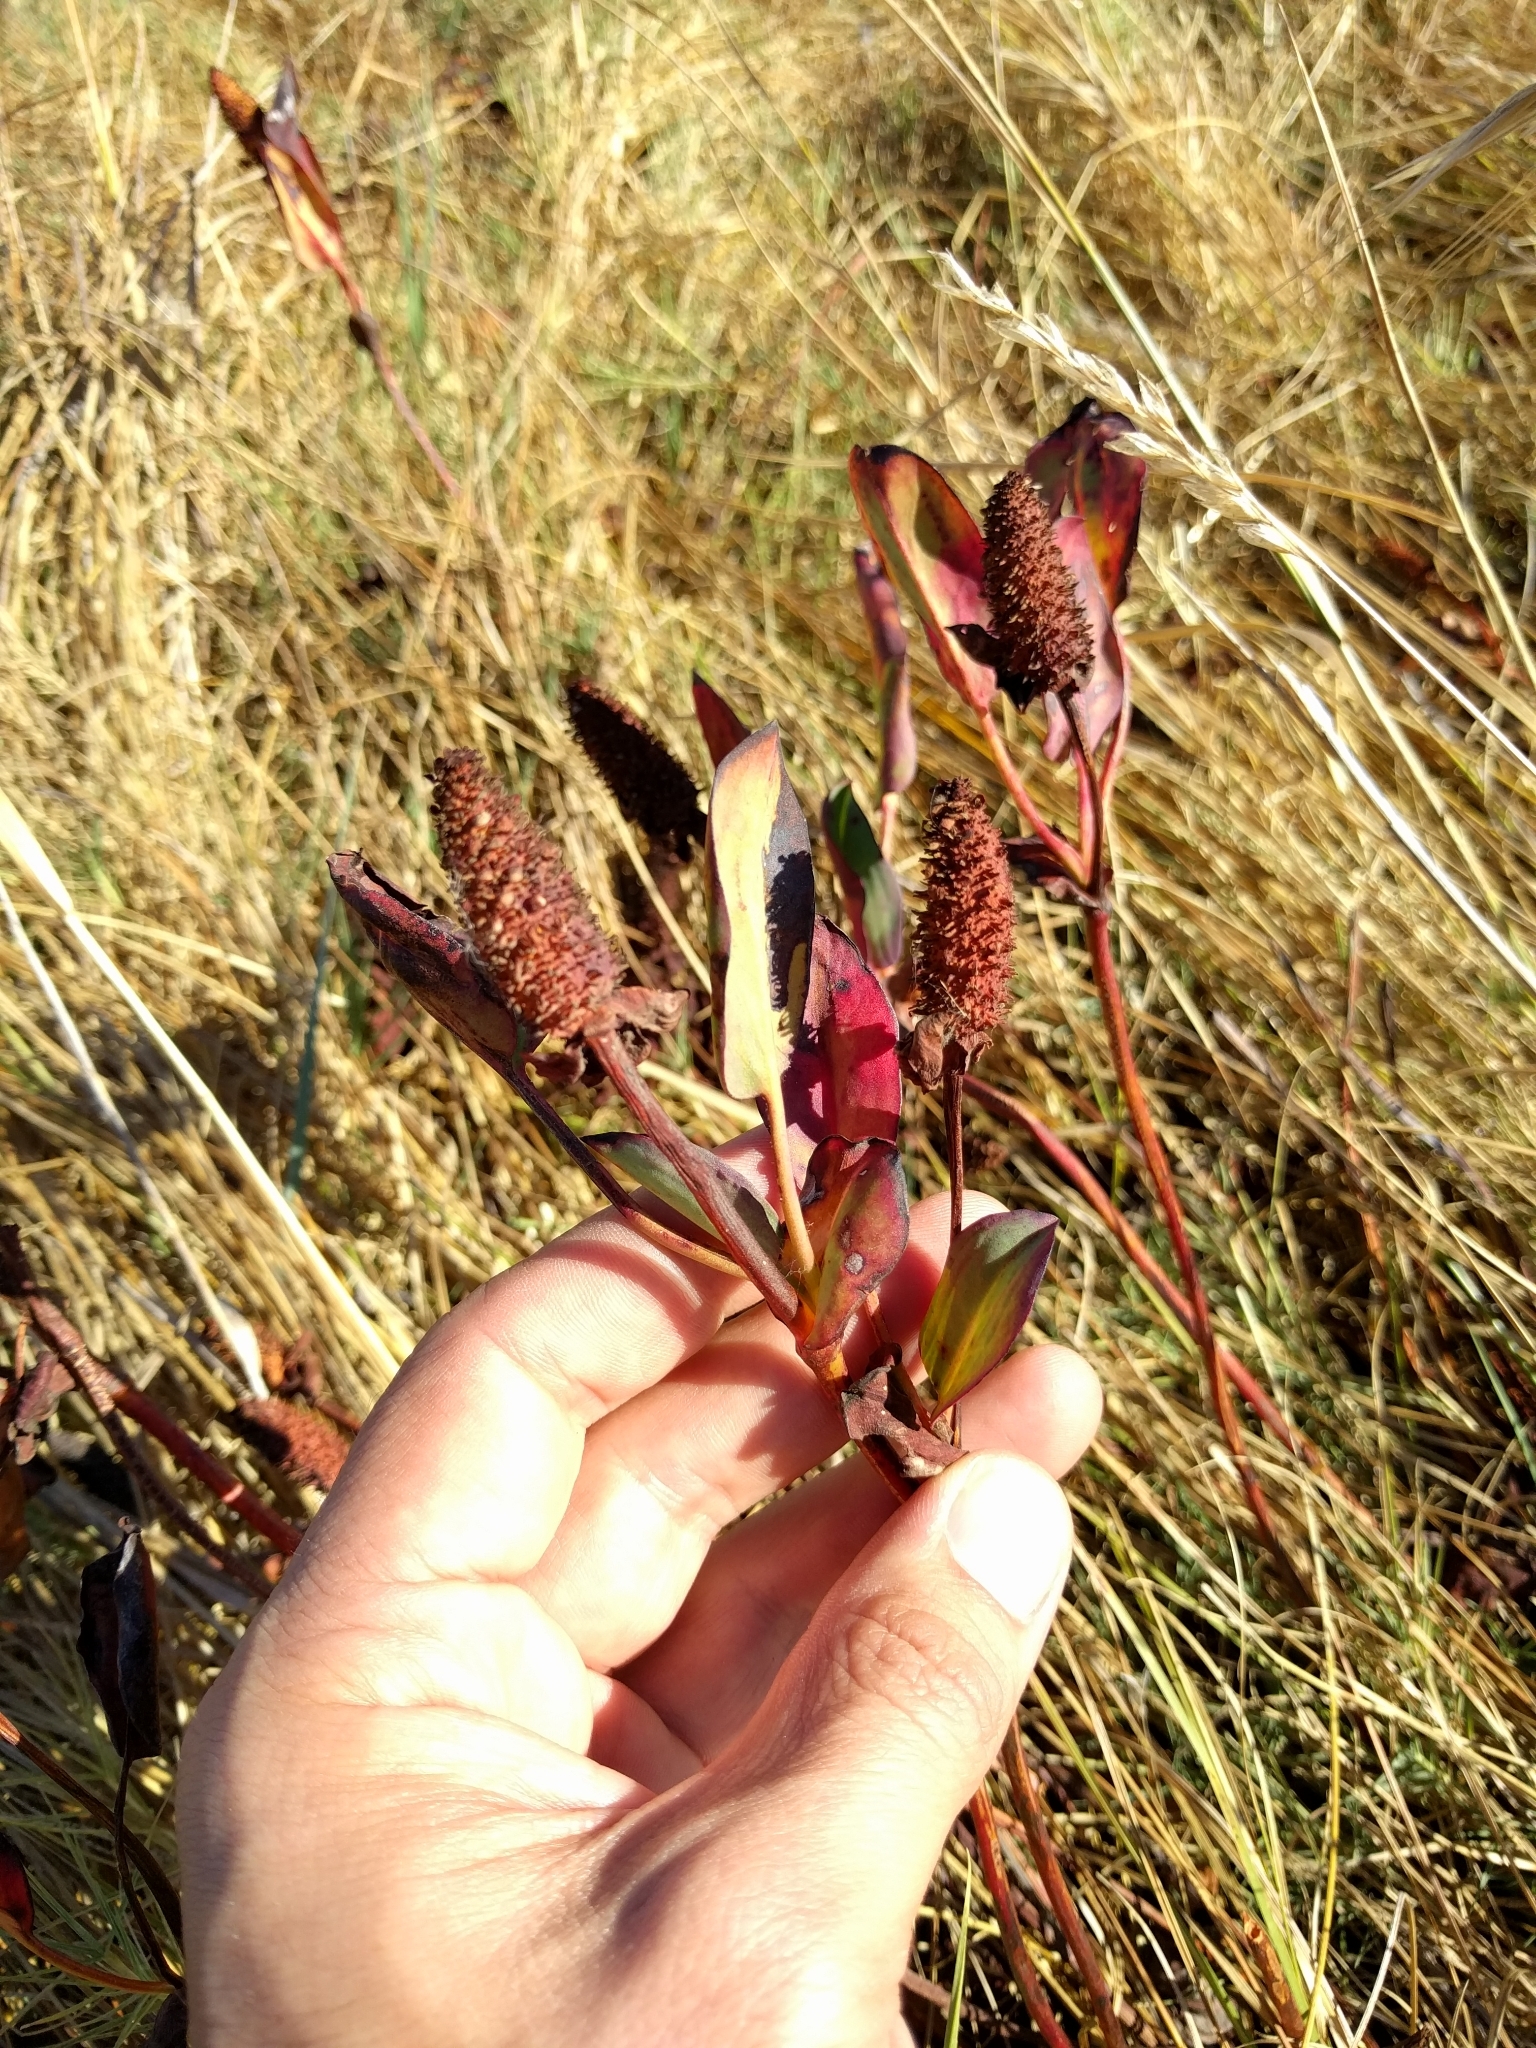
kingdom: Plantae
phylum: Tracheophyta
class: Magnoliopsida
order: Piperales
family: Saururaceae
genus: Anemopsis
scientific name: Anemopsis californica
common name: Apache-beads
